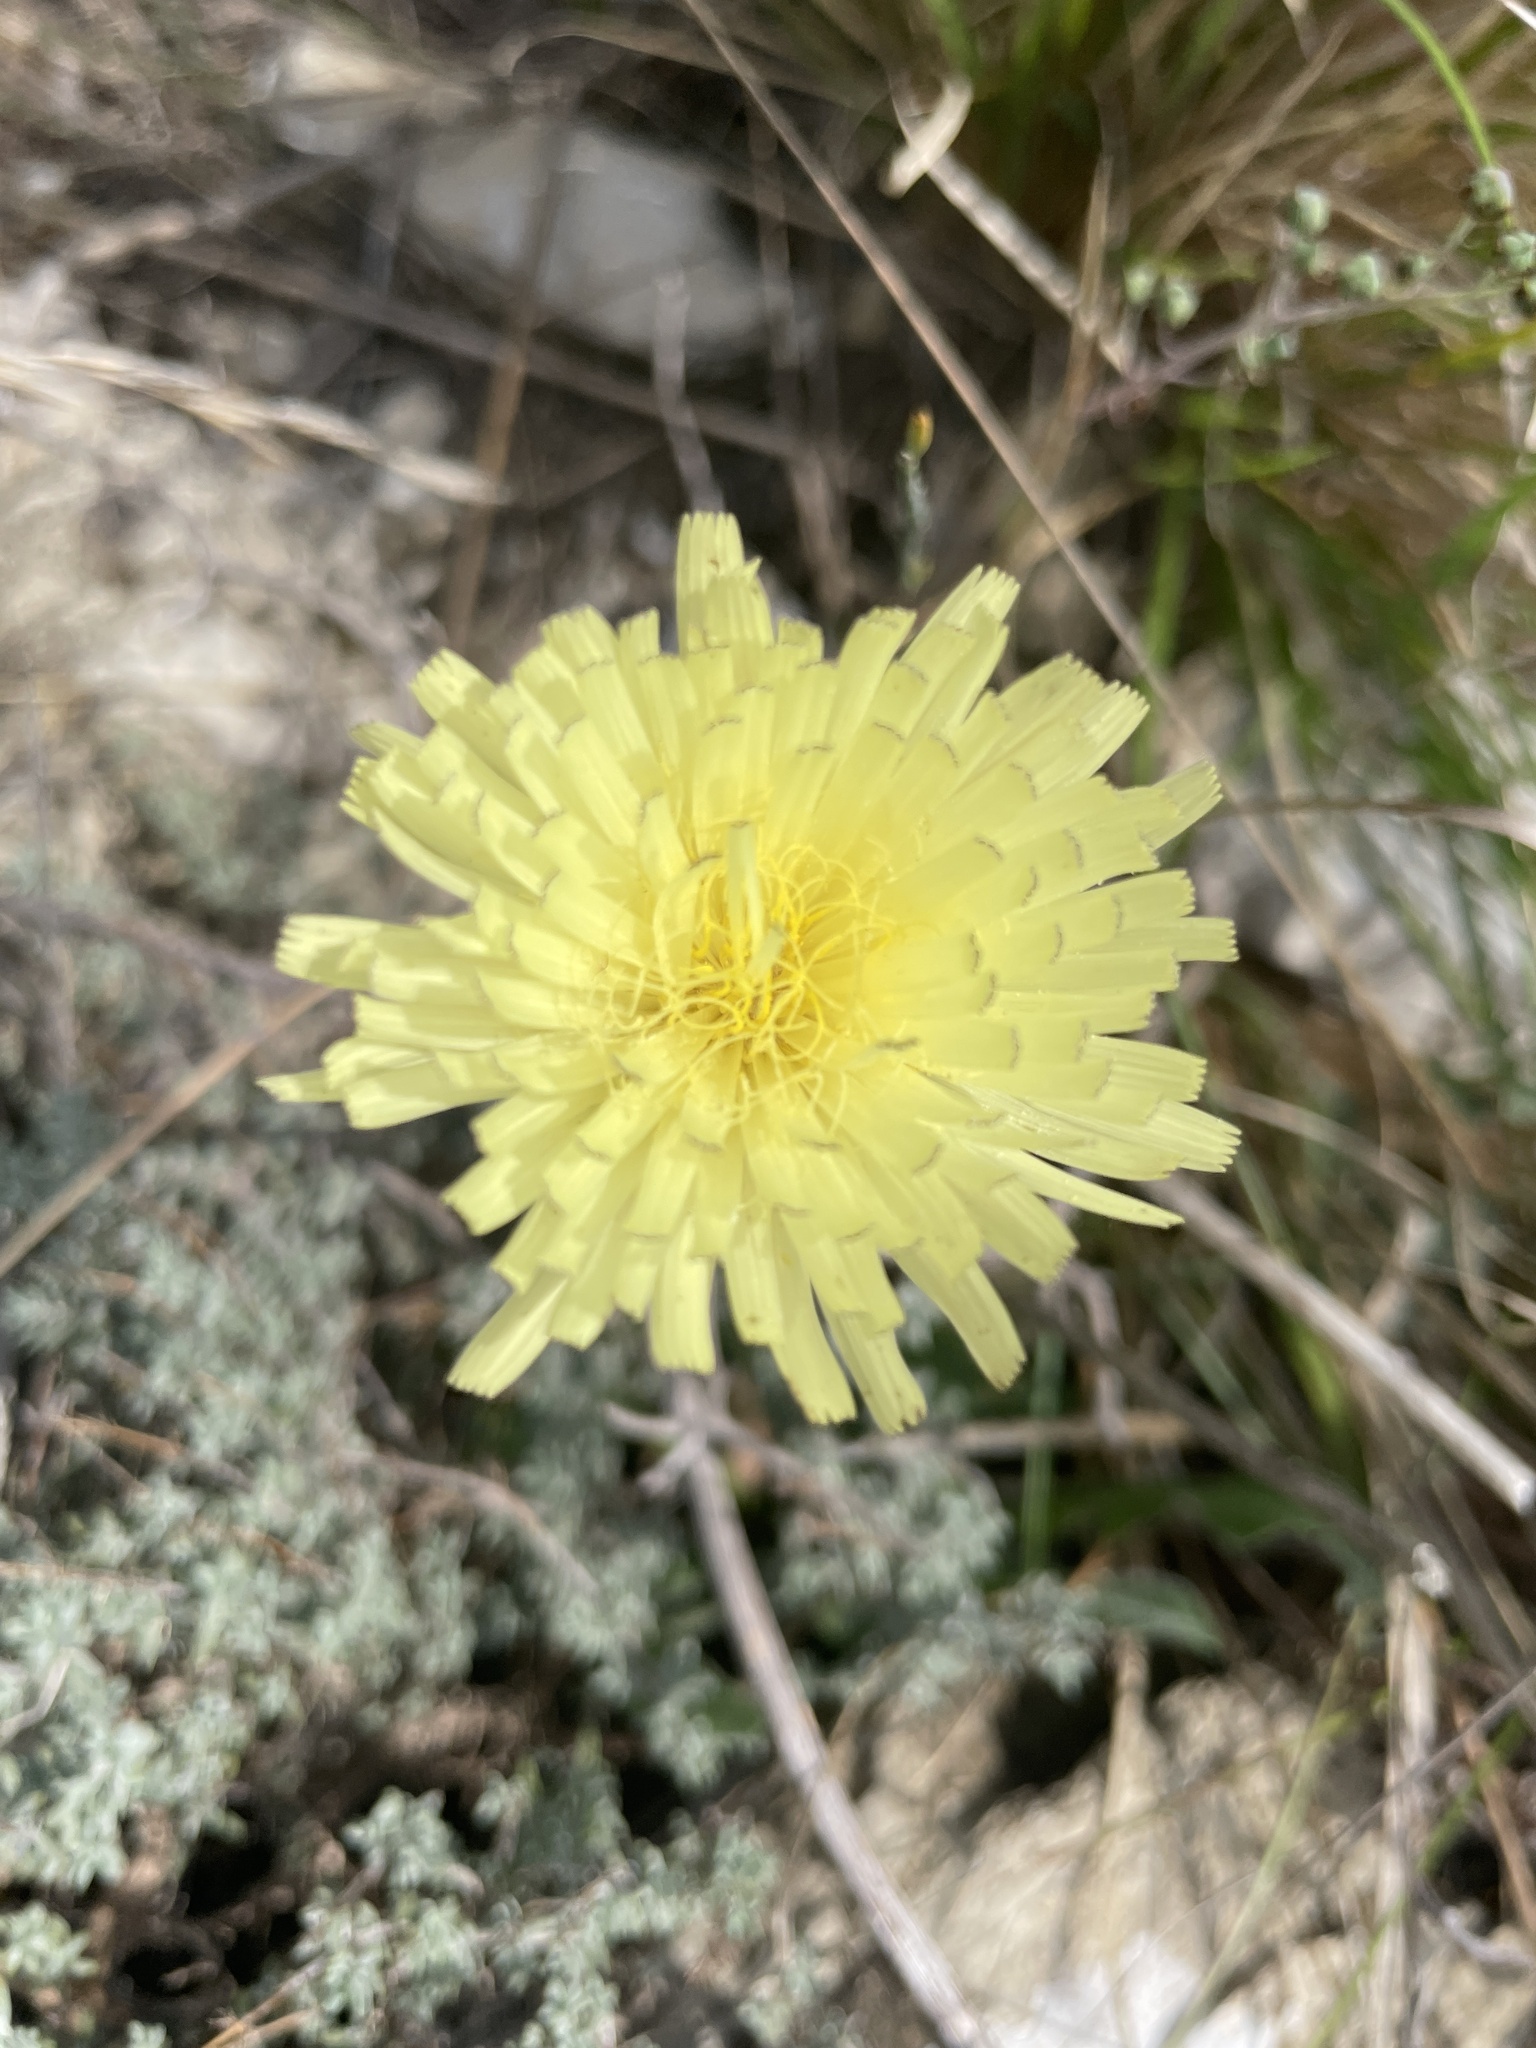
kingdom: Plantae
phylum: Tracheophyta
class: Magnoliopsida
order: Asterales
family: Asteraceae
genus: Urospermum
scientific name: Urospermum dalechampii
